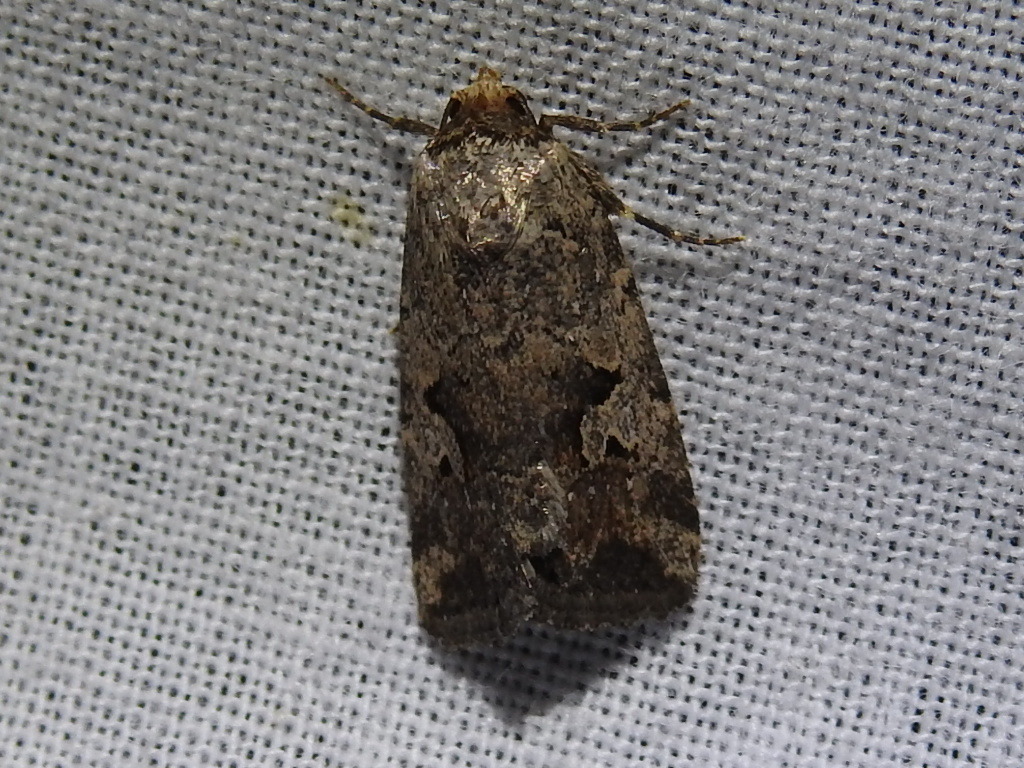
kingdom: Animalia
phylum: Arthropoda
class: Insecta
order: Lepidoptera
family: Noctuidae
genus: Elaphria
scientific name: Elaphria festivoides
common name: Festive midget
